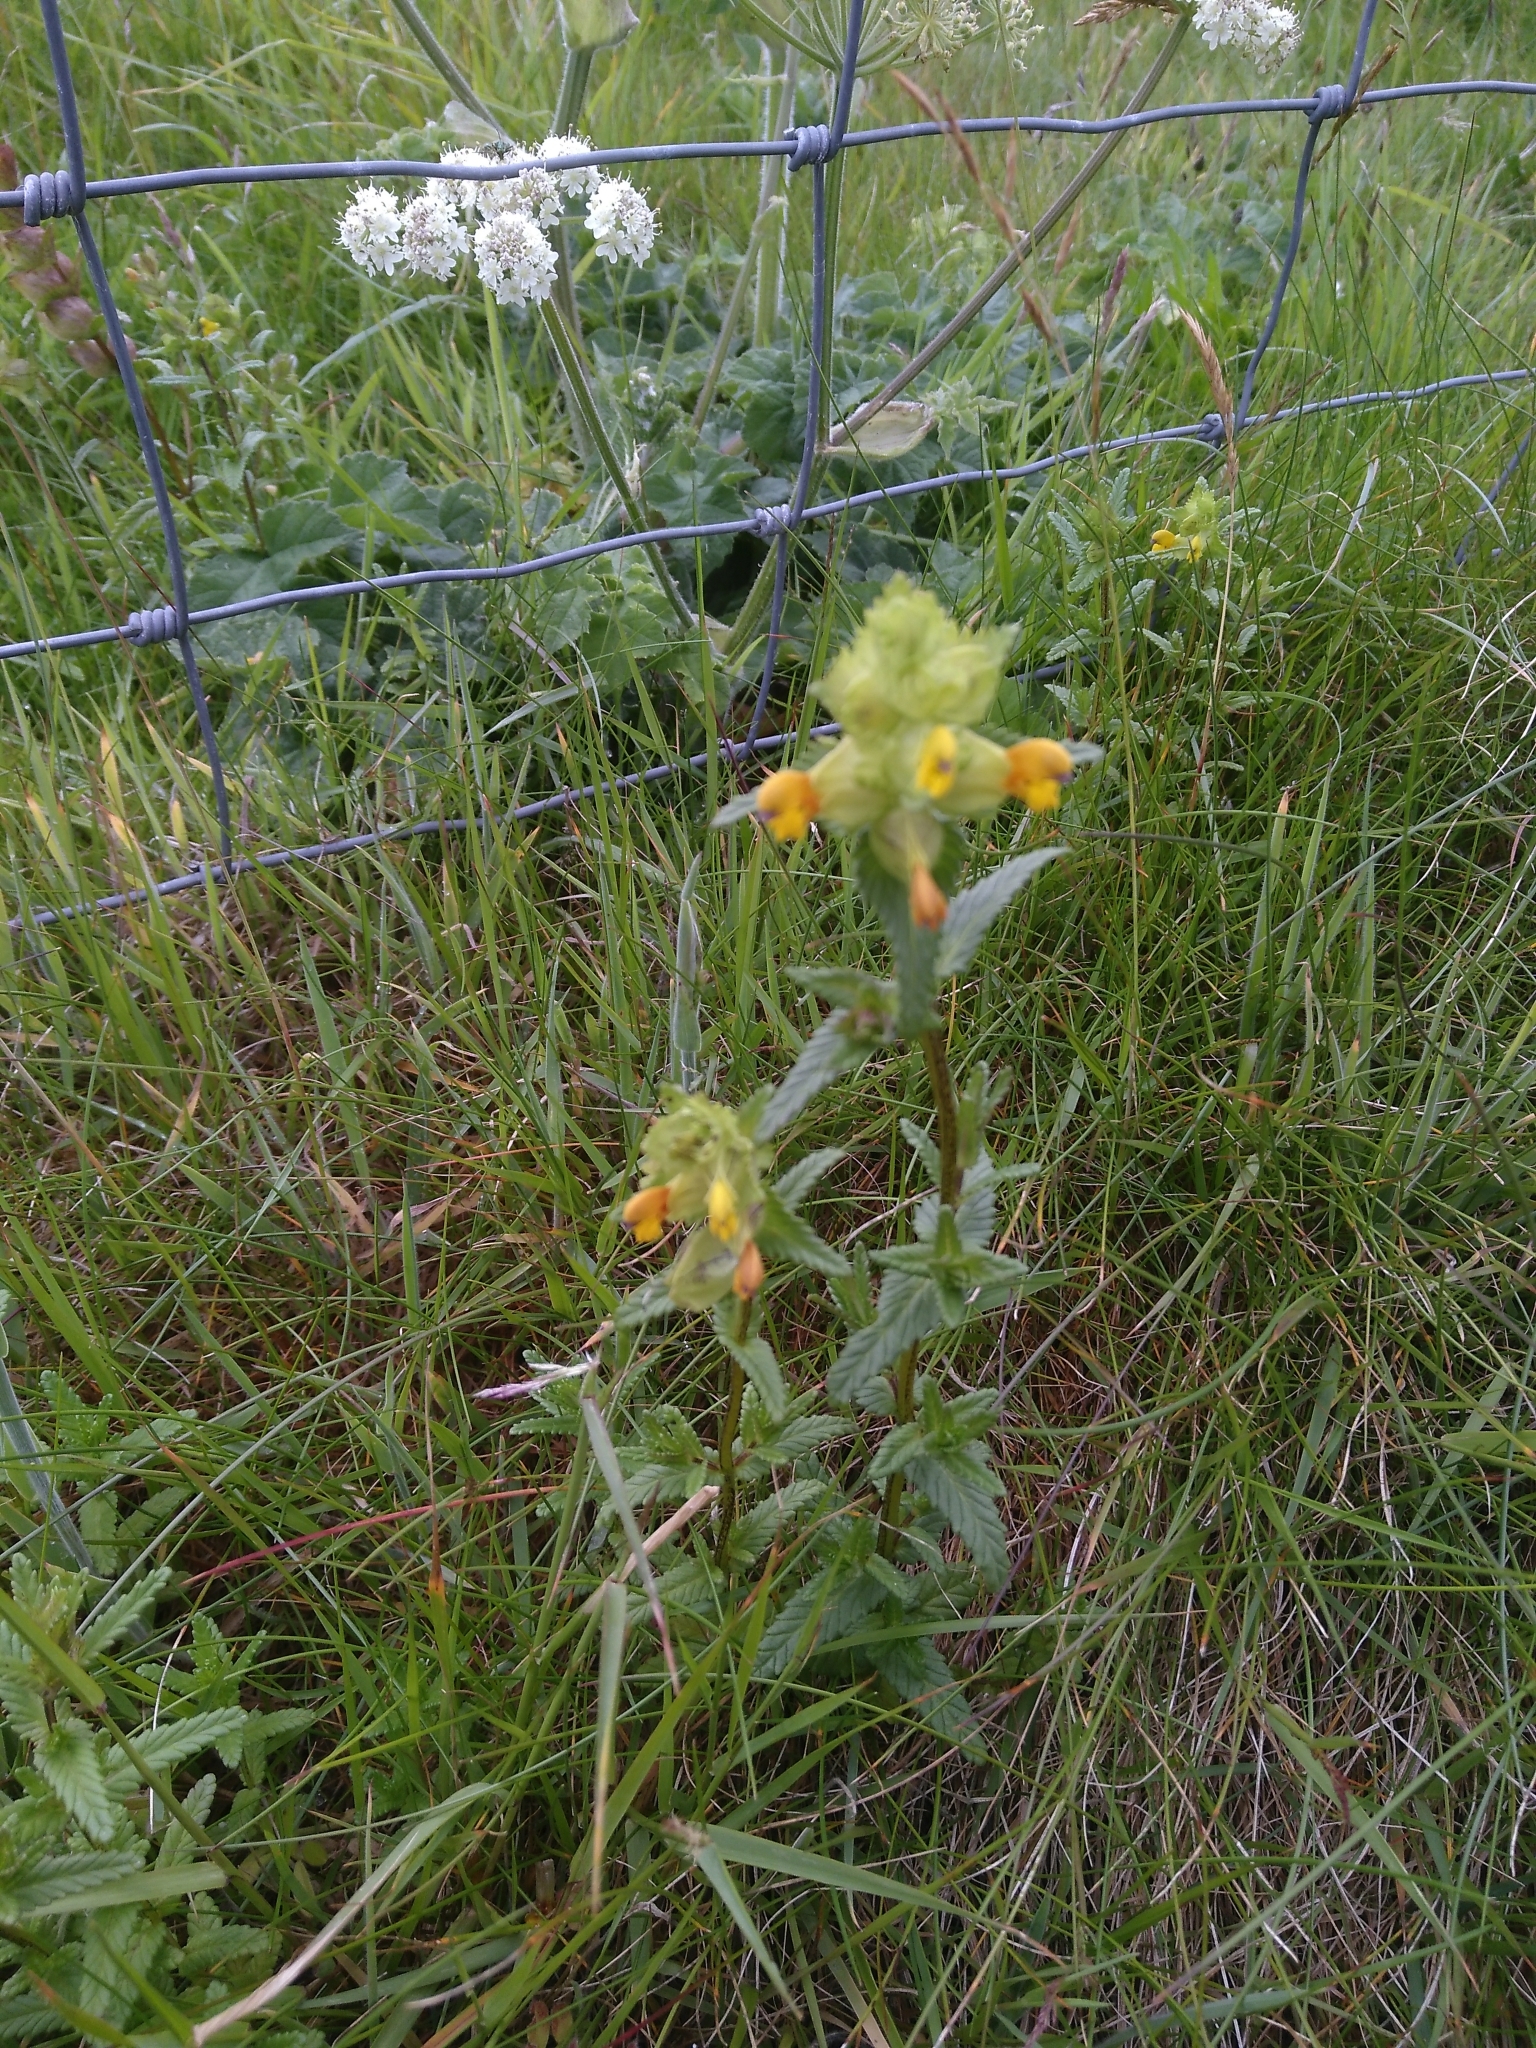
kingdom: Plantae
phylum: Tracheophyta
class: Magnoliopsida
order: Lamiales
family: Orobanchaceae
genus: Rhinanthus
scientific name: Rhinanthus minor
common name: Yellow-rattle
